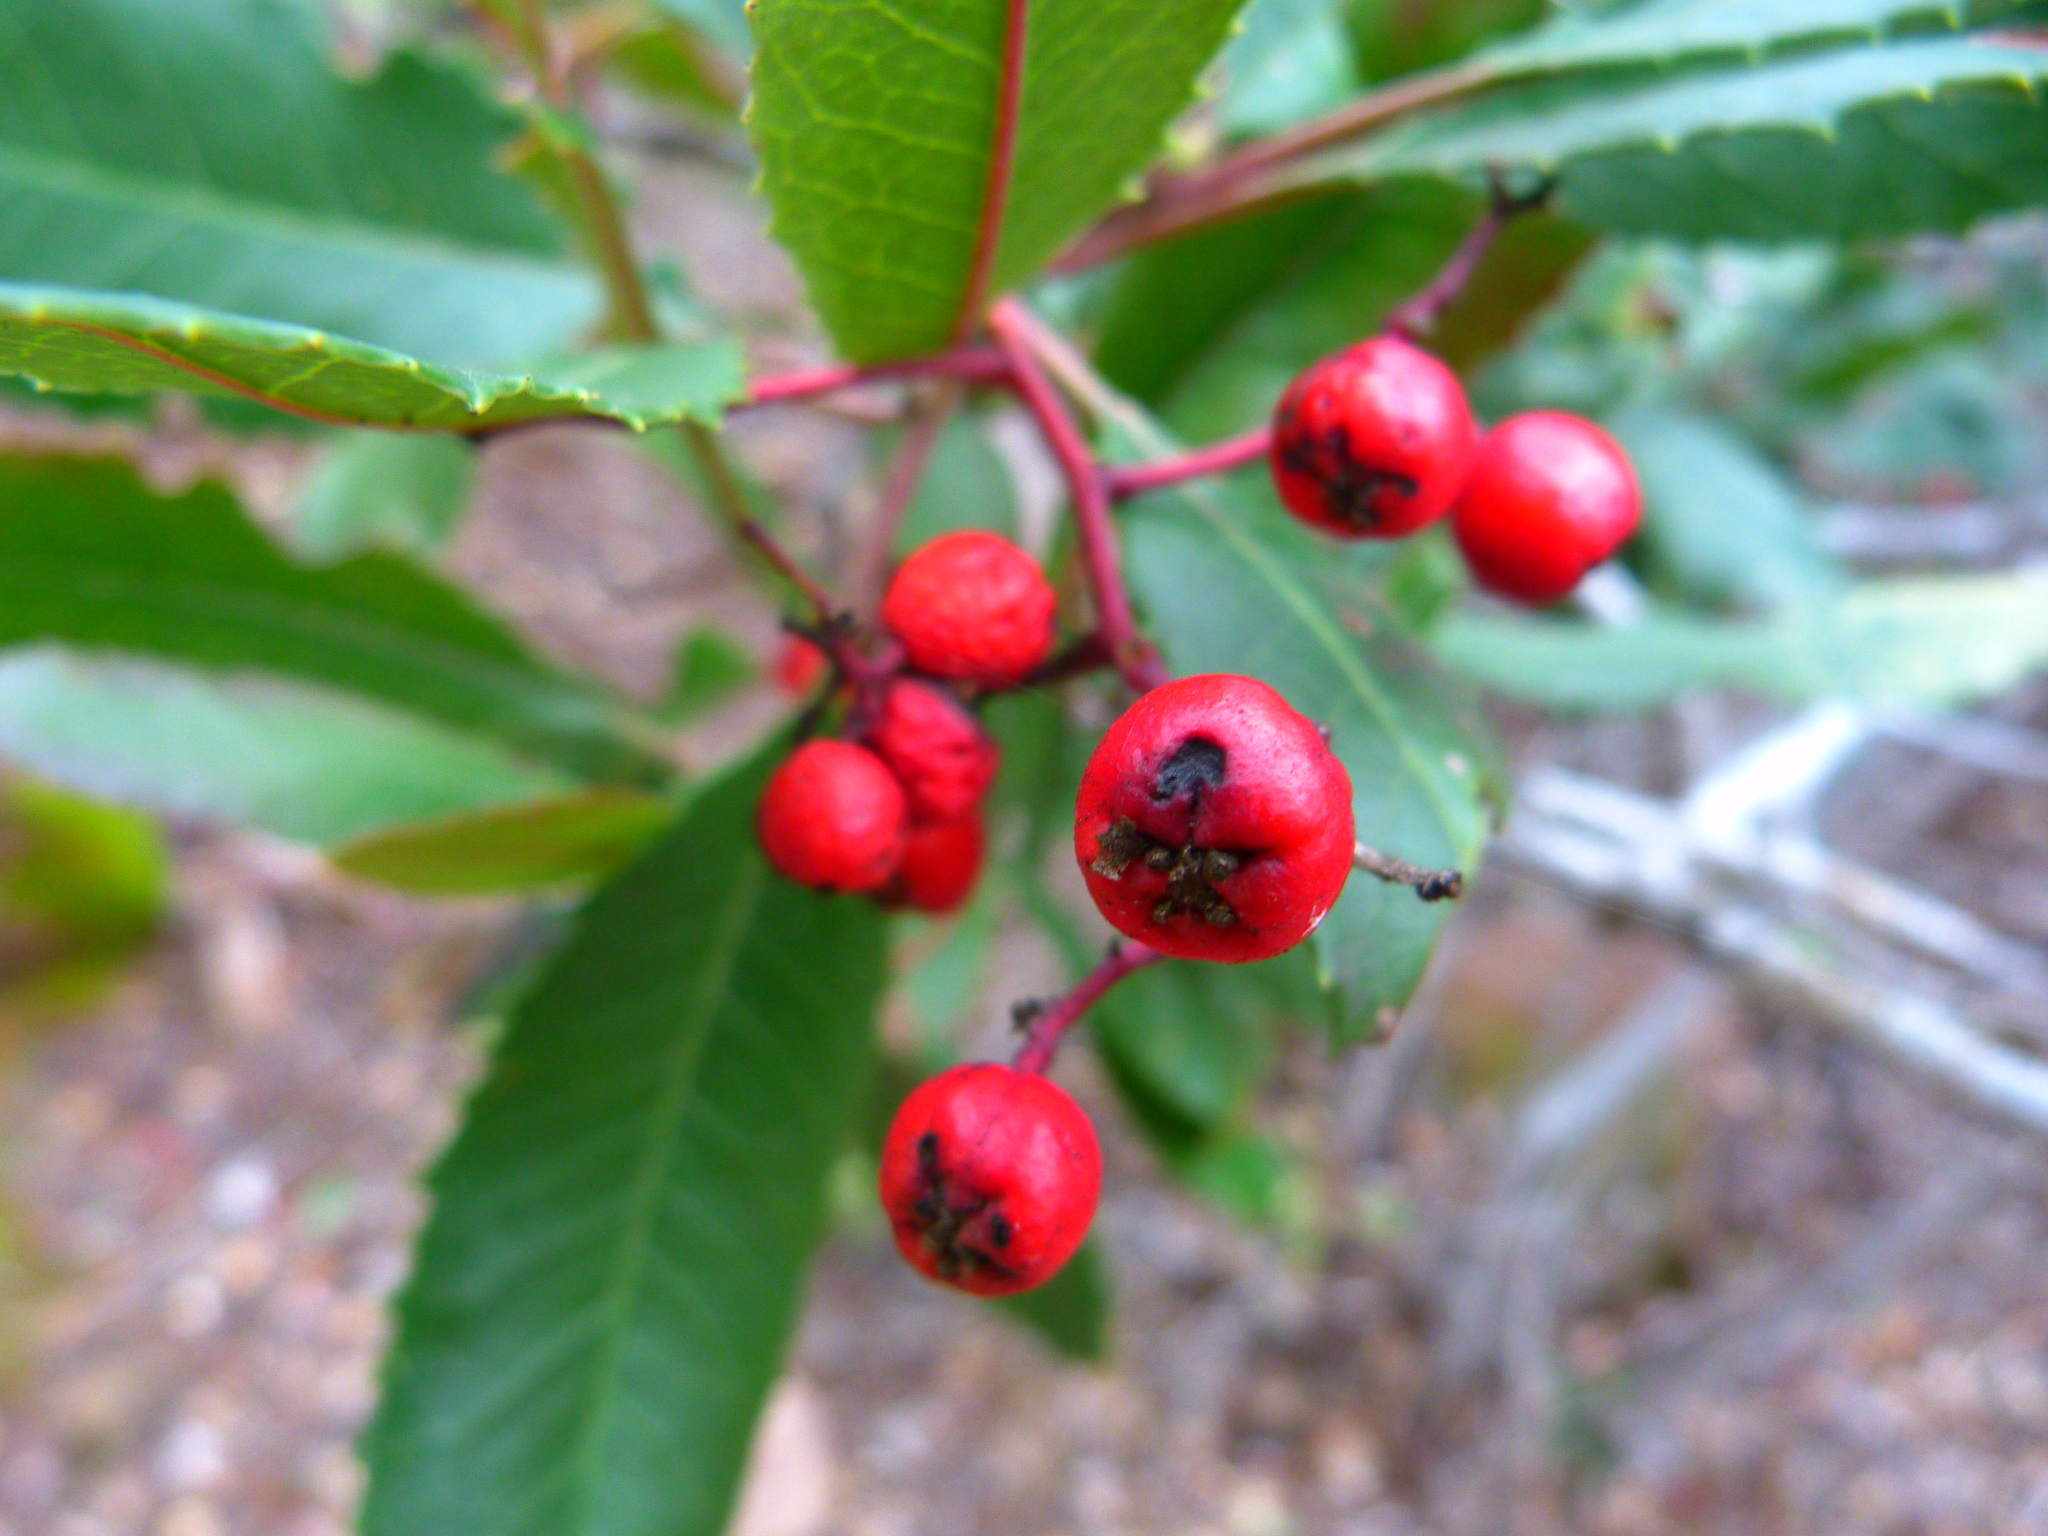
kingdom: Plantae
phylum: Tracheophyta
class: Magnoliopsida
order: Rosales
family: Rosaceae
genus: Heteromeles
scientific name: Heteromeles arbutifolia
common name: California-holly
